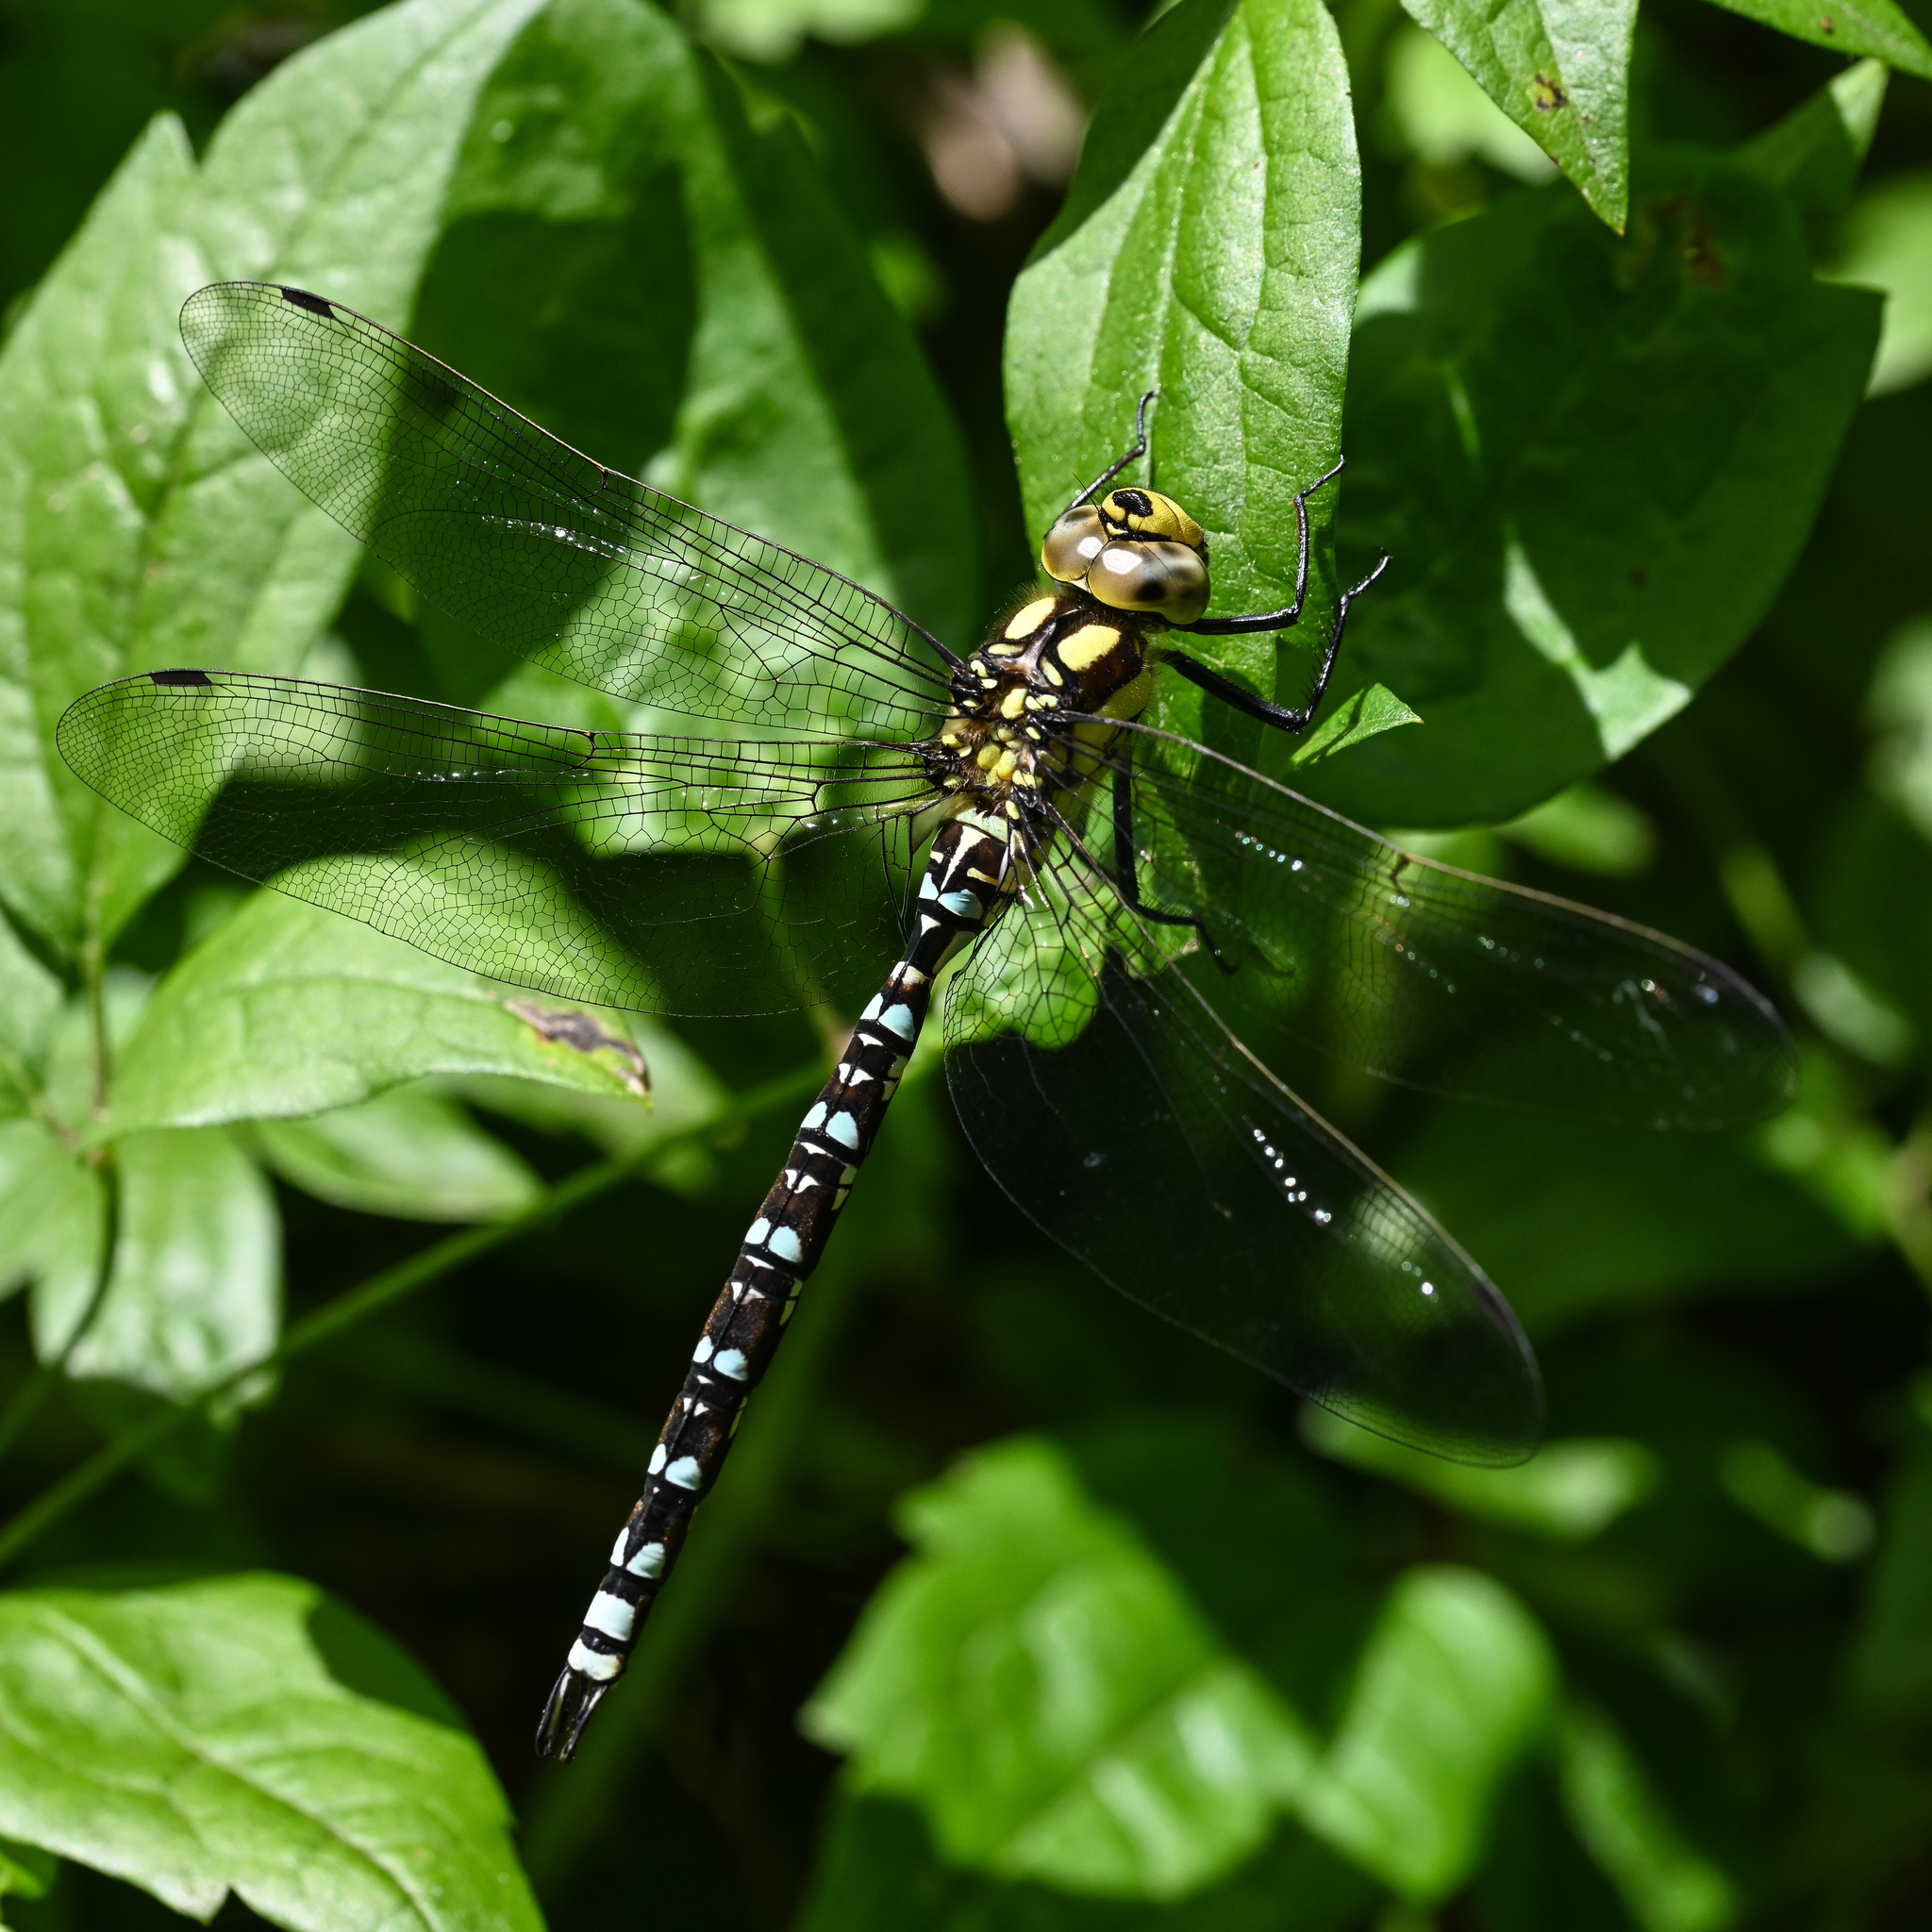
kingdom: Animalia
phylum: Arthropoda
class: Insecta
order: Odonata
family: Aeshnidae
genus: Aeshna
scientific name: Aeshna cyanea
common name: Southern hawker
